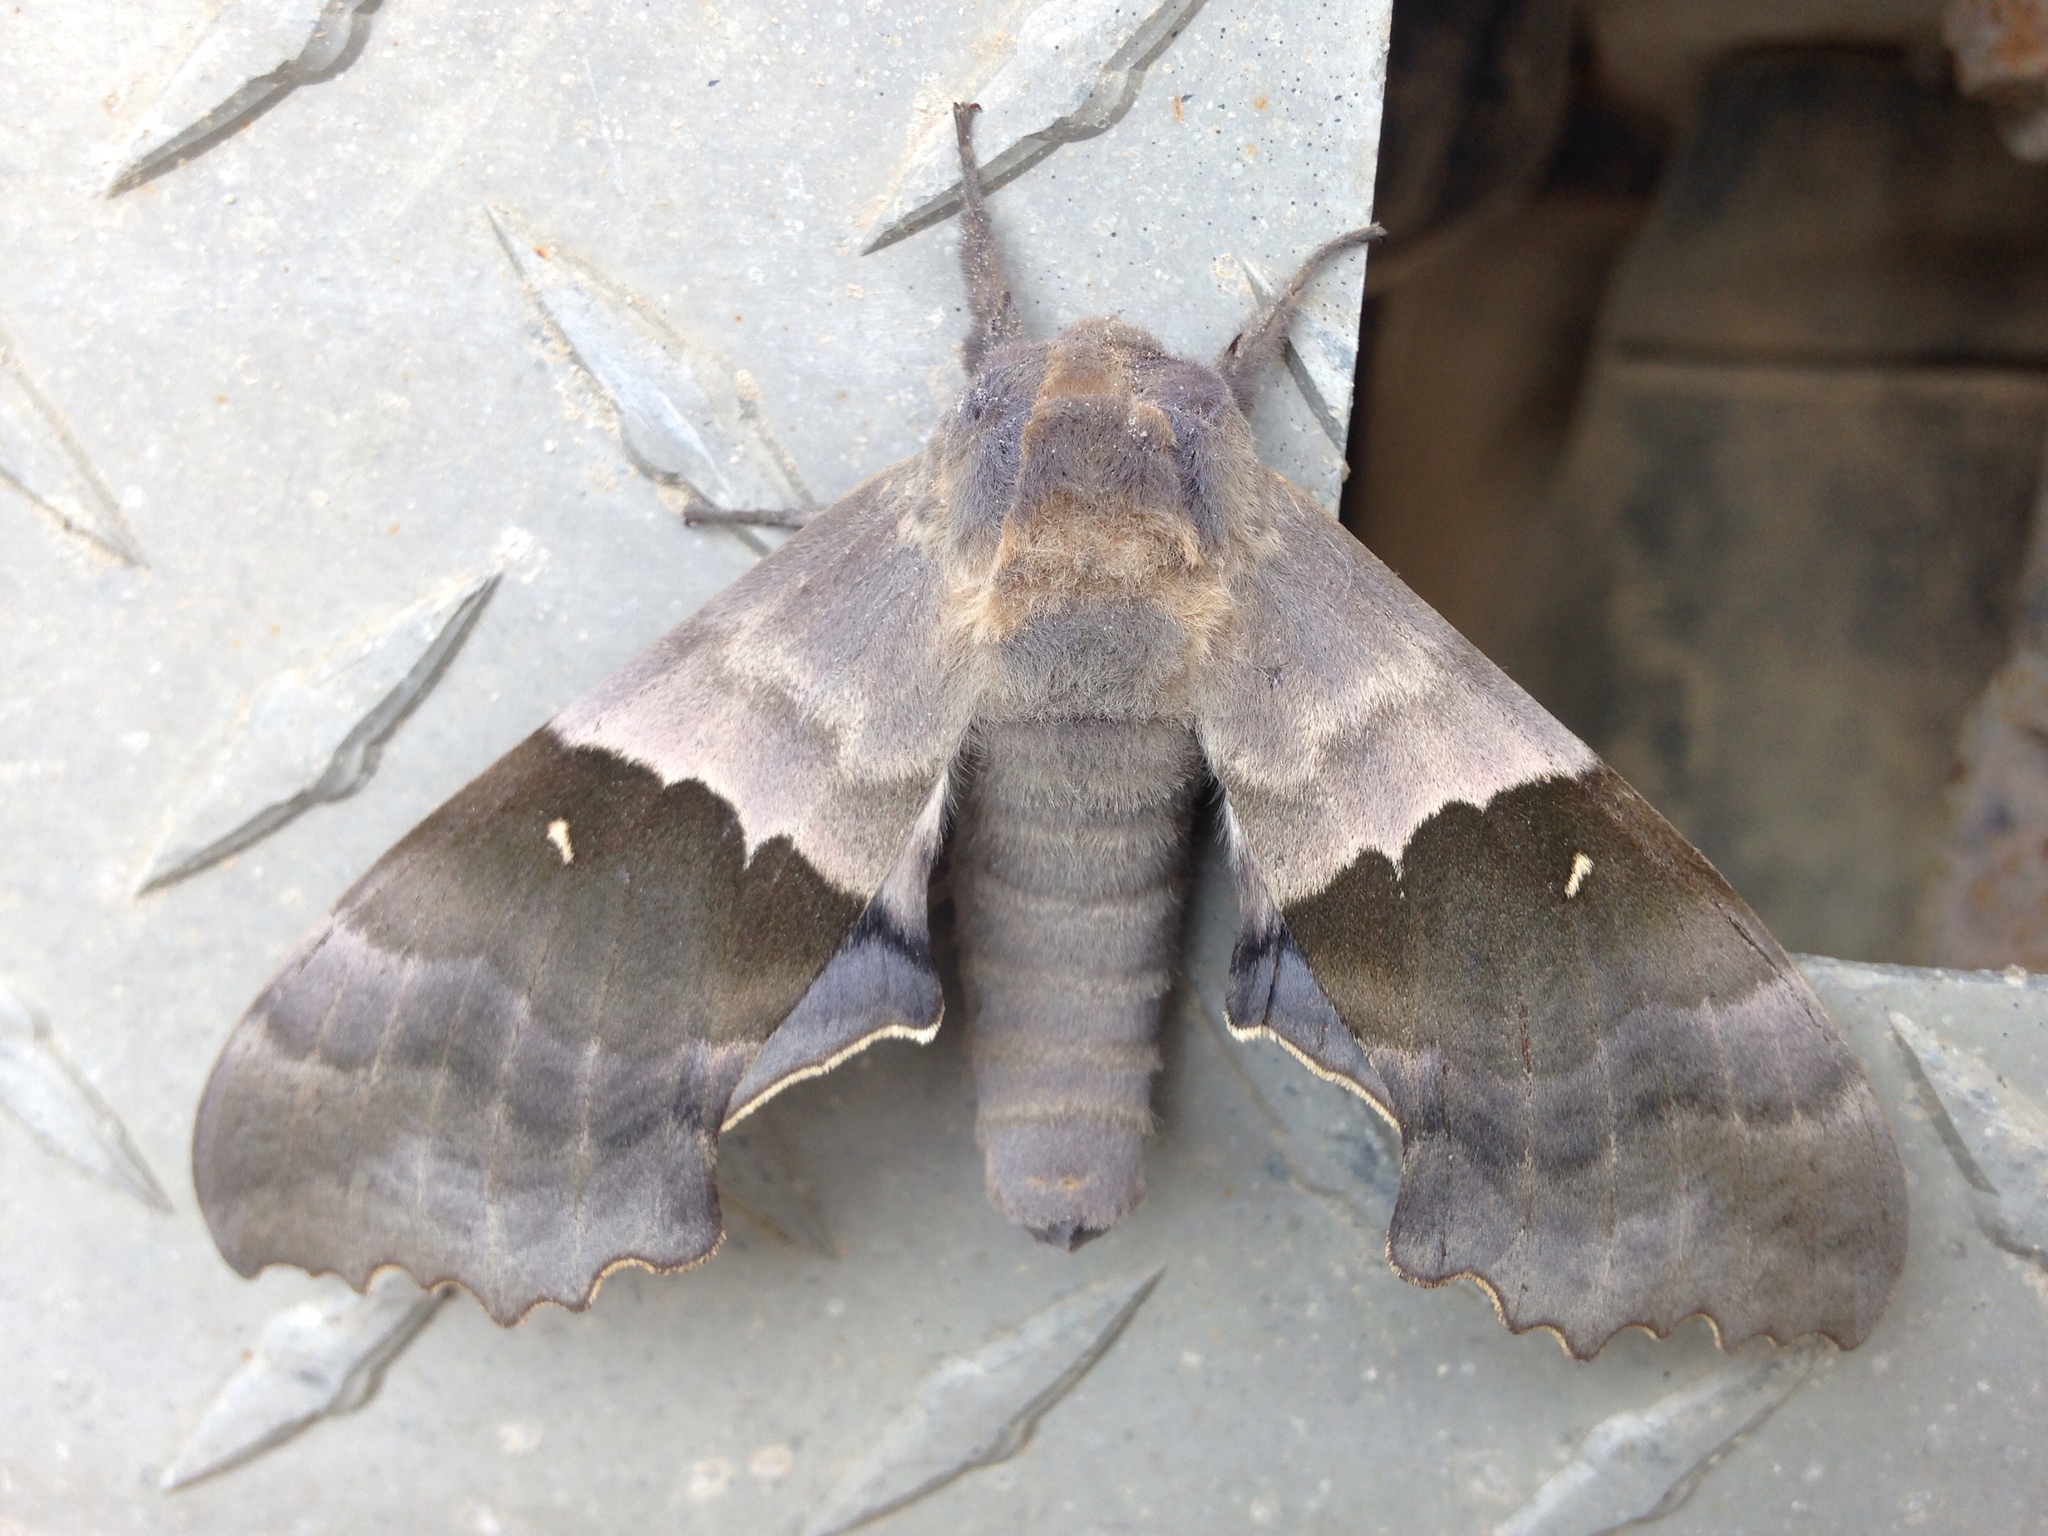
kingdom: Animalia
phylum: Arthropoda
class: Insecta
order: Lepidoptera
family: Sphingidae
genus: Pachysphinx
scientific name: Pachysphinx modesta
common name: Big poplar sphinx
